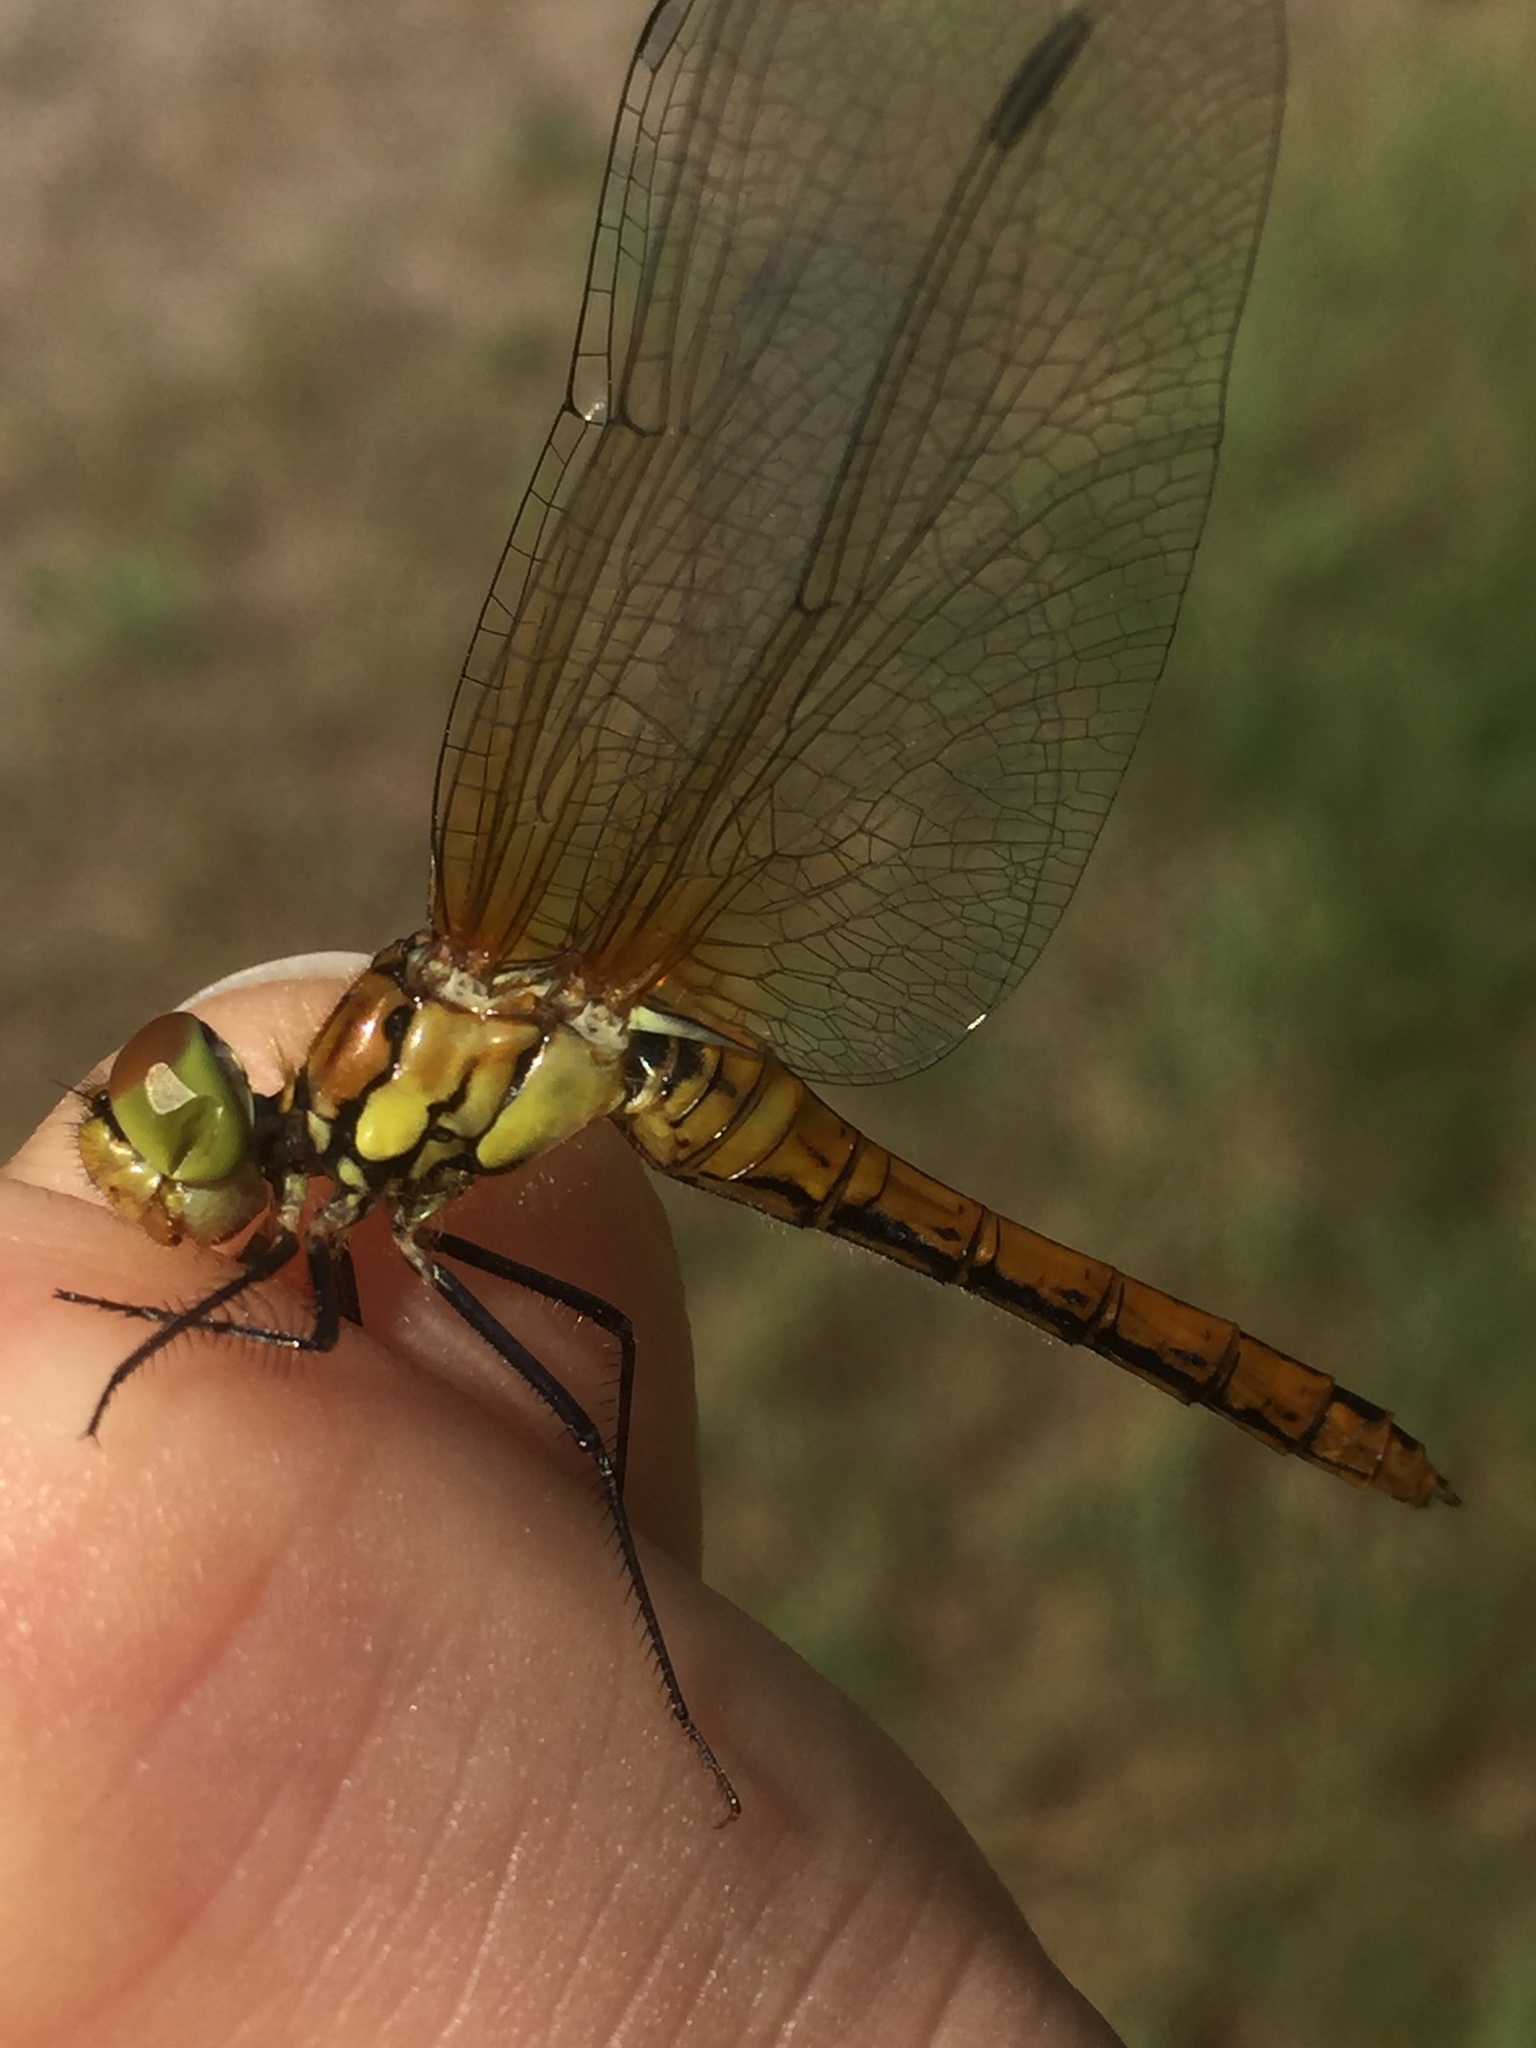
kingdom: Animalia
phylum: Arthropoda
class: Insecta
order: Odonata
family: Libellulidae
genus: Sympetrum
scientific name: Sympetrum sanguineum
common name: Ruddy darter
